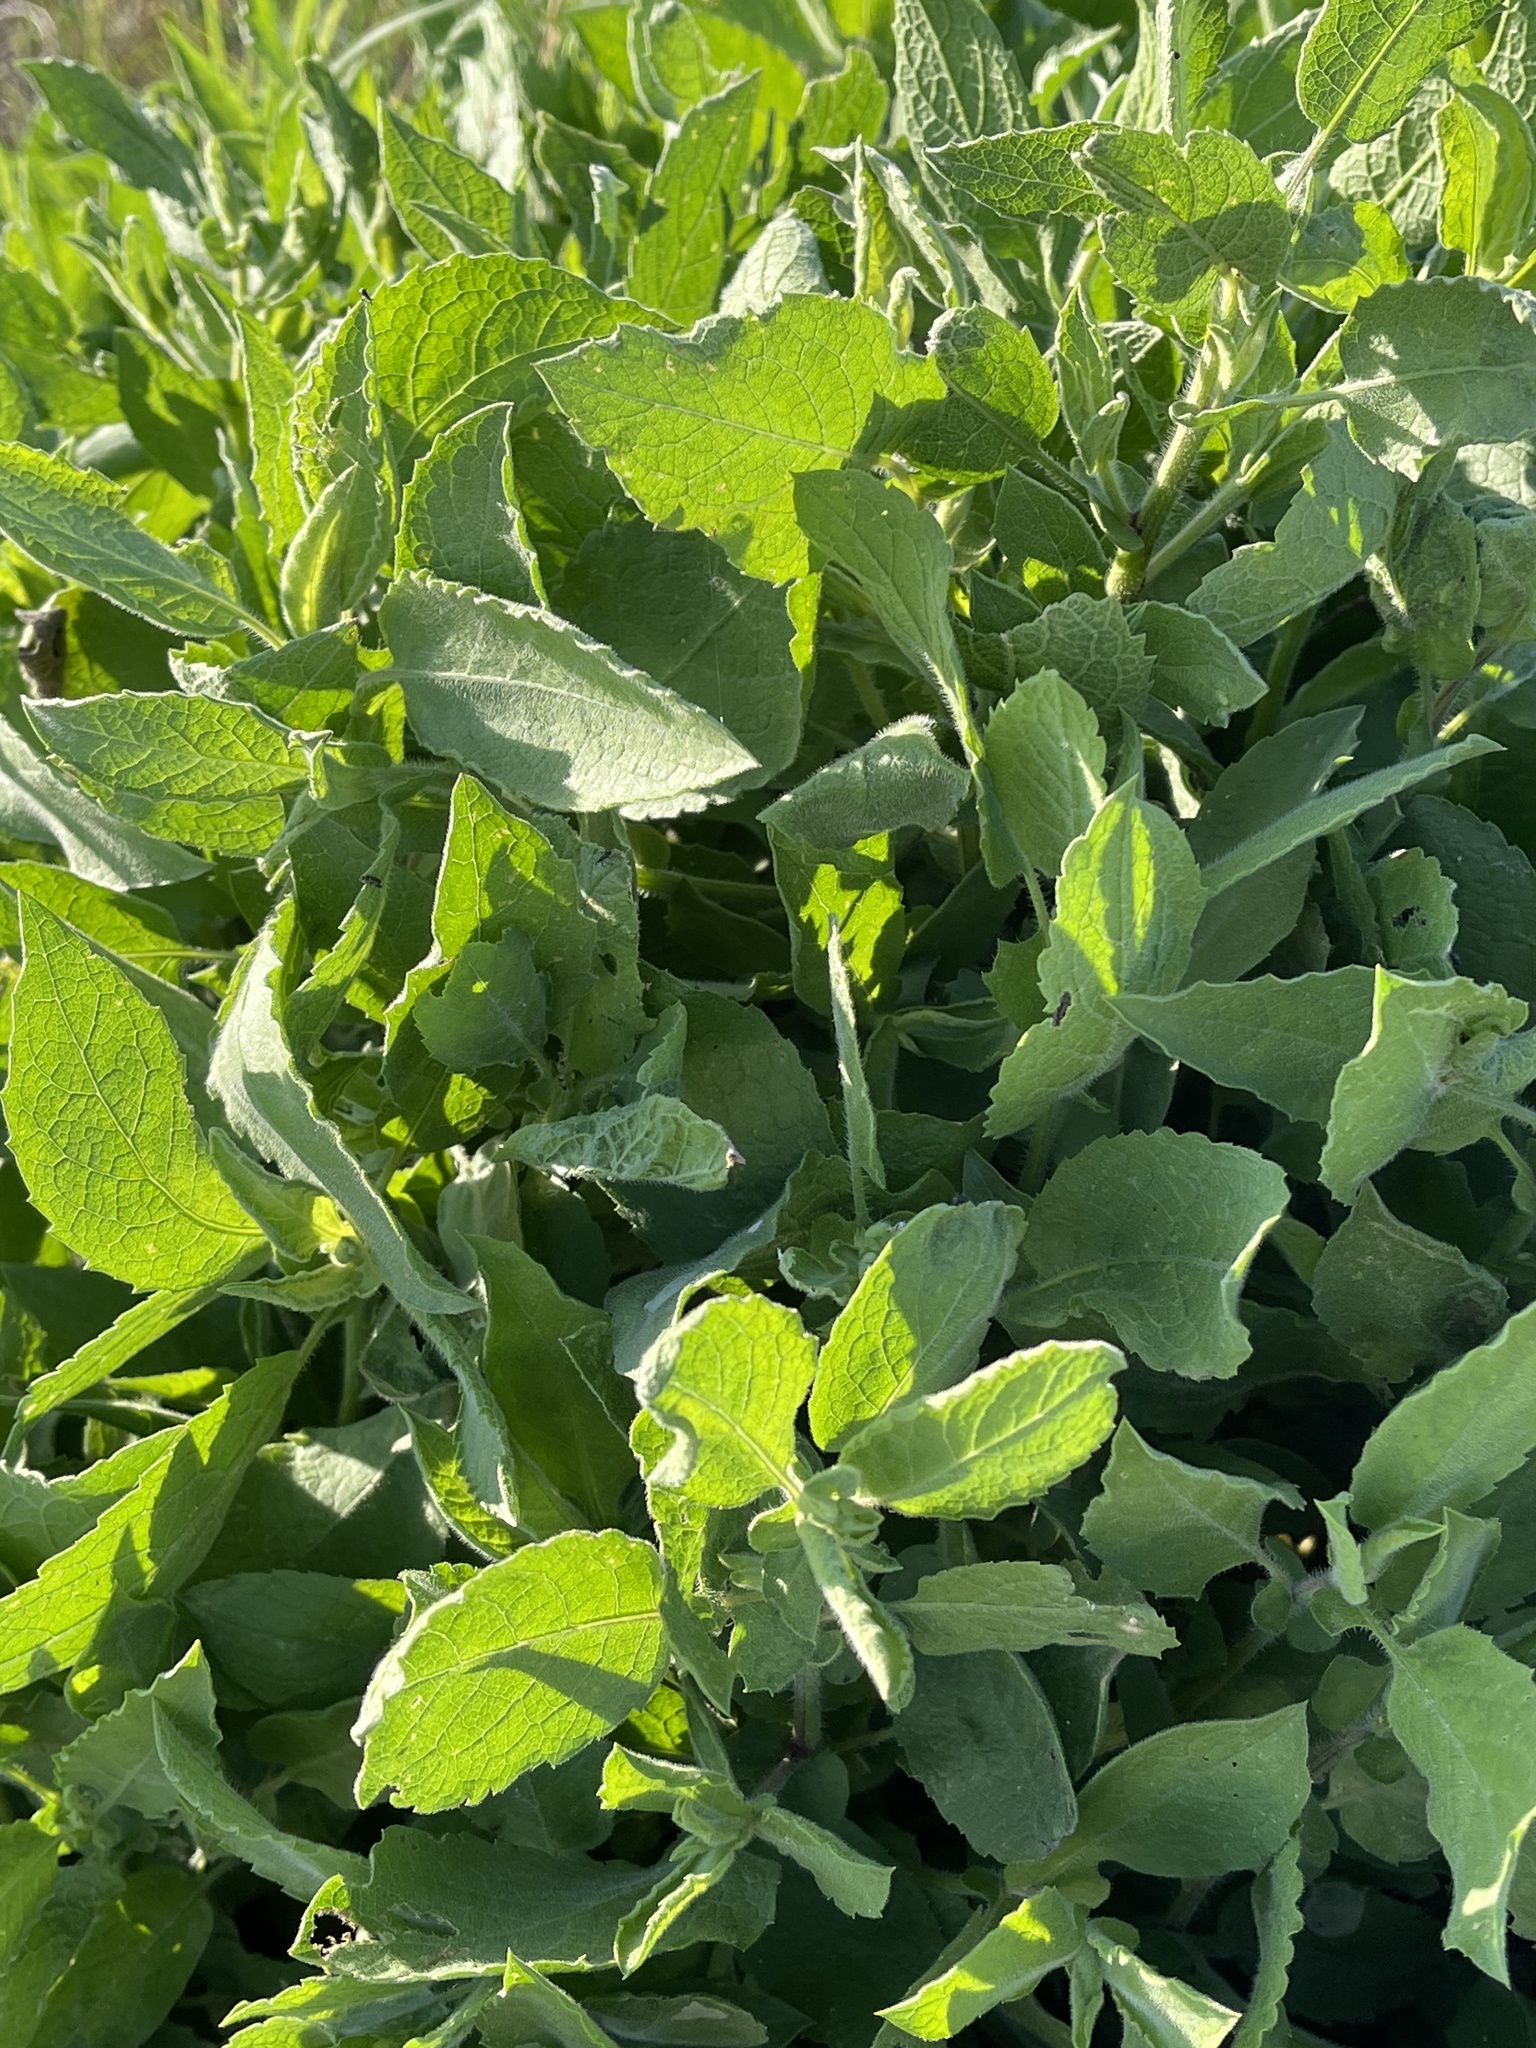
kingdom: Plantae
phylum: Tracheophyta
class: Magnoliopsida
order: Asterales
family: Asteraceae
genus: Heterotheca
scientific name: Heterotheca subaxillaris
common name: Camphorweed
